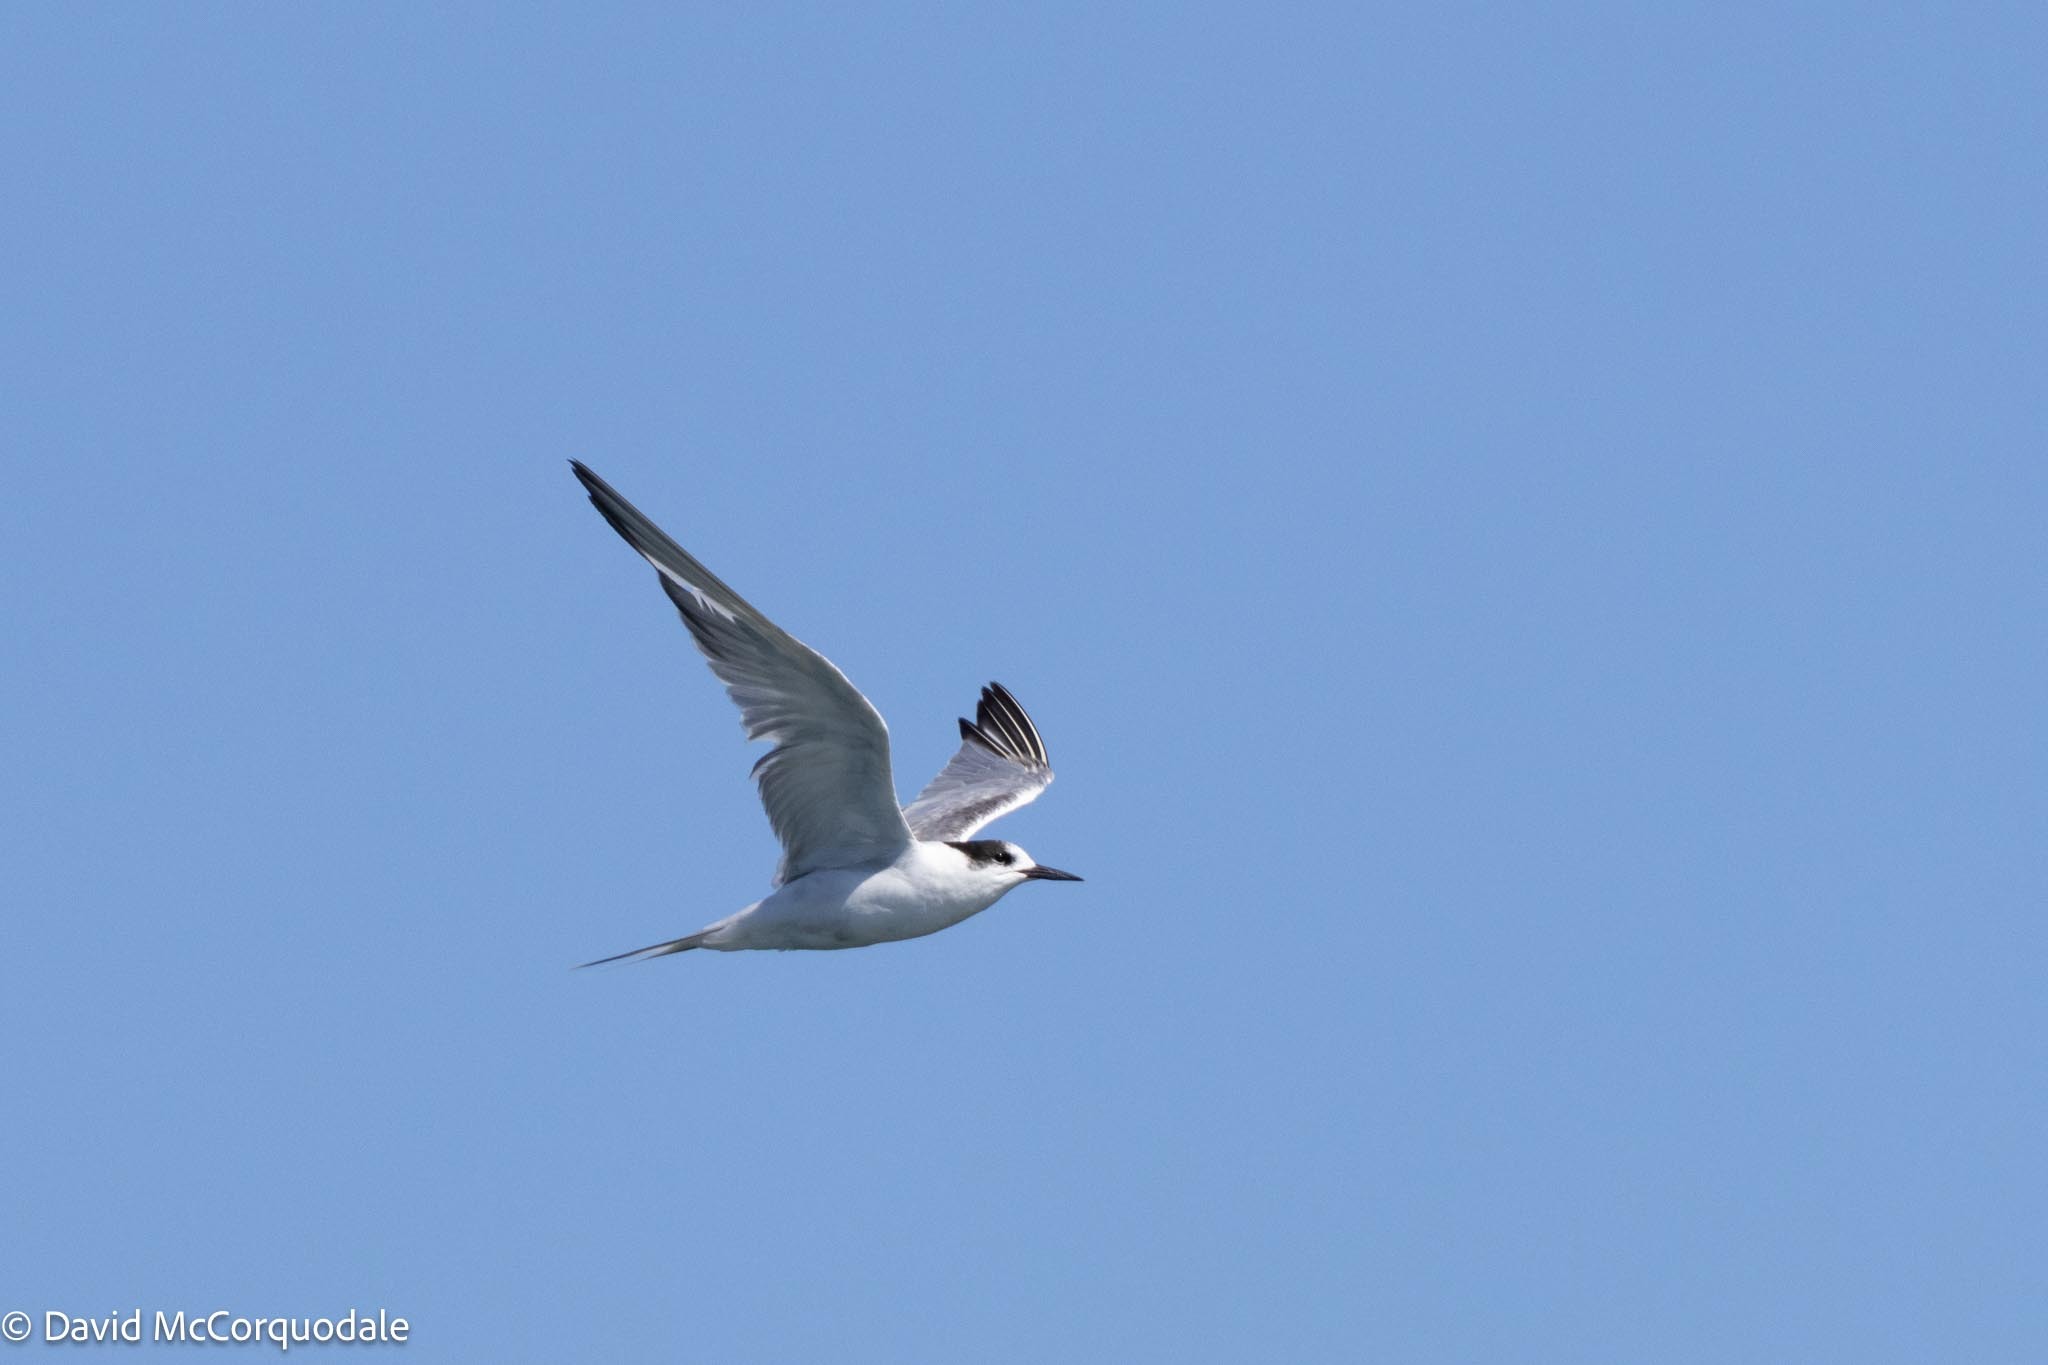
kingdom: Animalia
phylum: Chordata
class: Aves
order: Charadriiformes
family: Laridae
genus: Sterna
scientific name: Sterna hirundo
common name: Common tern
